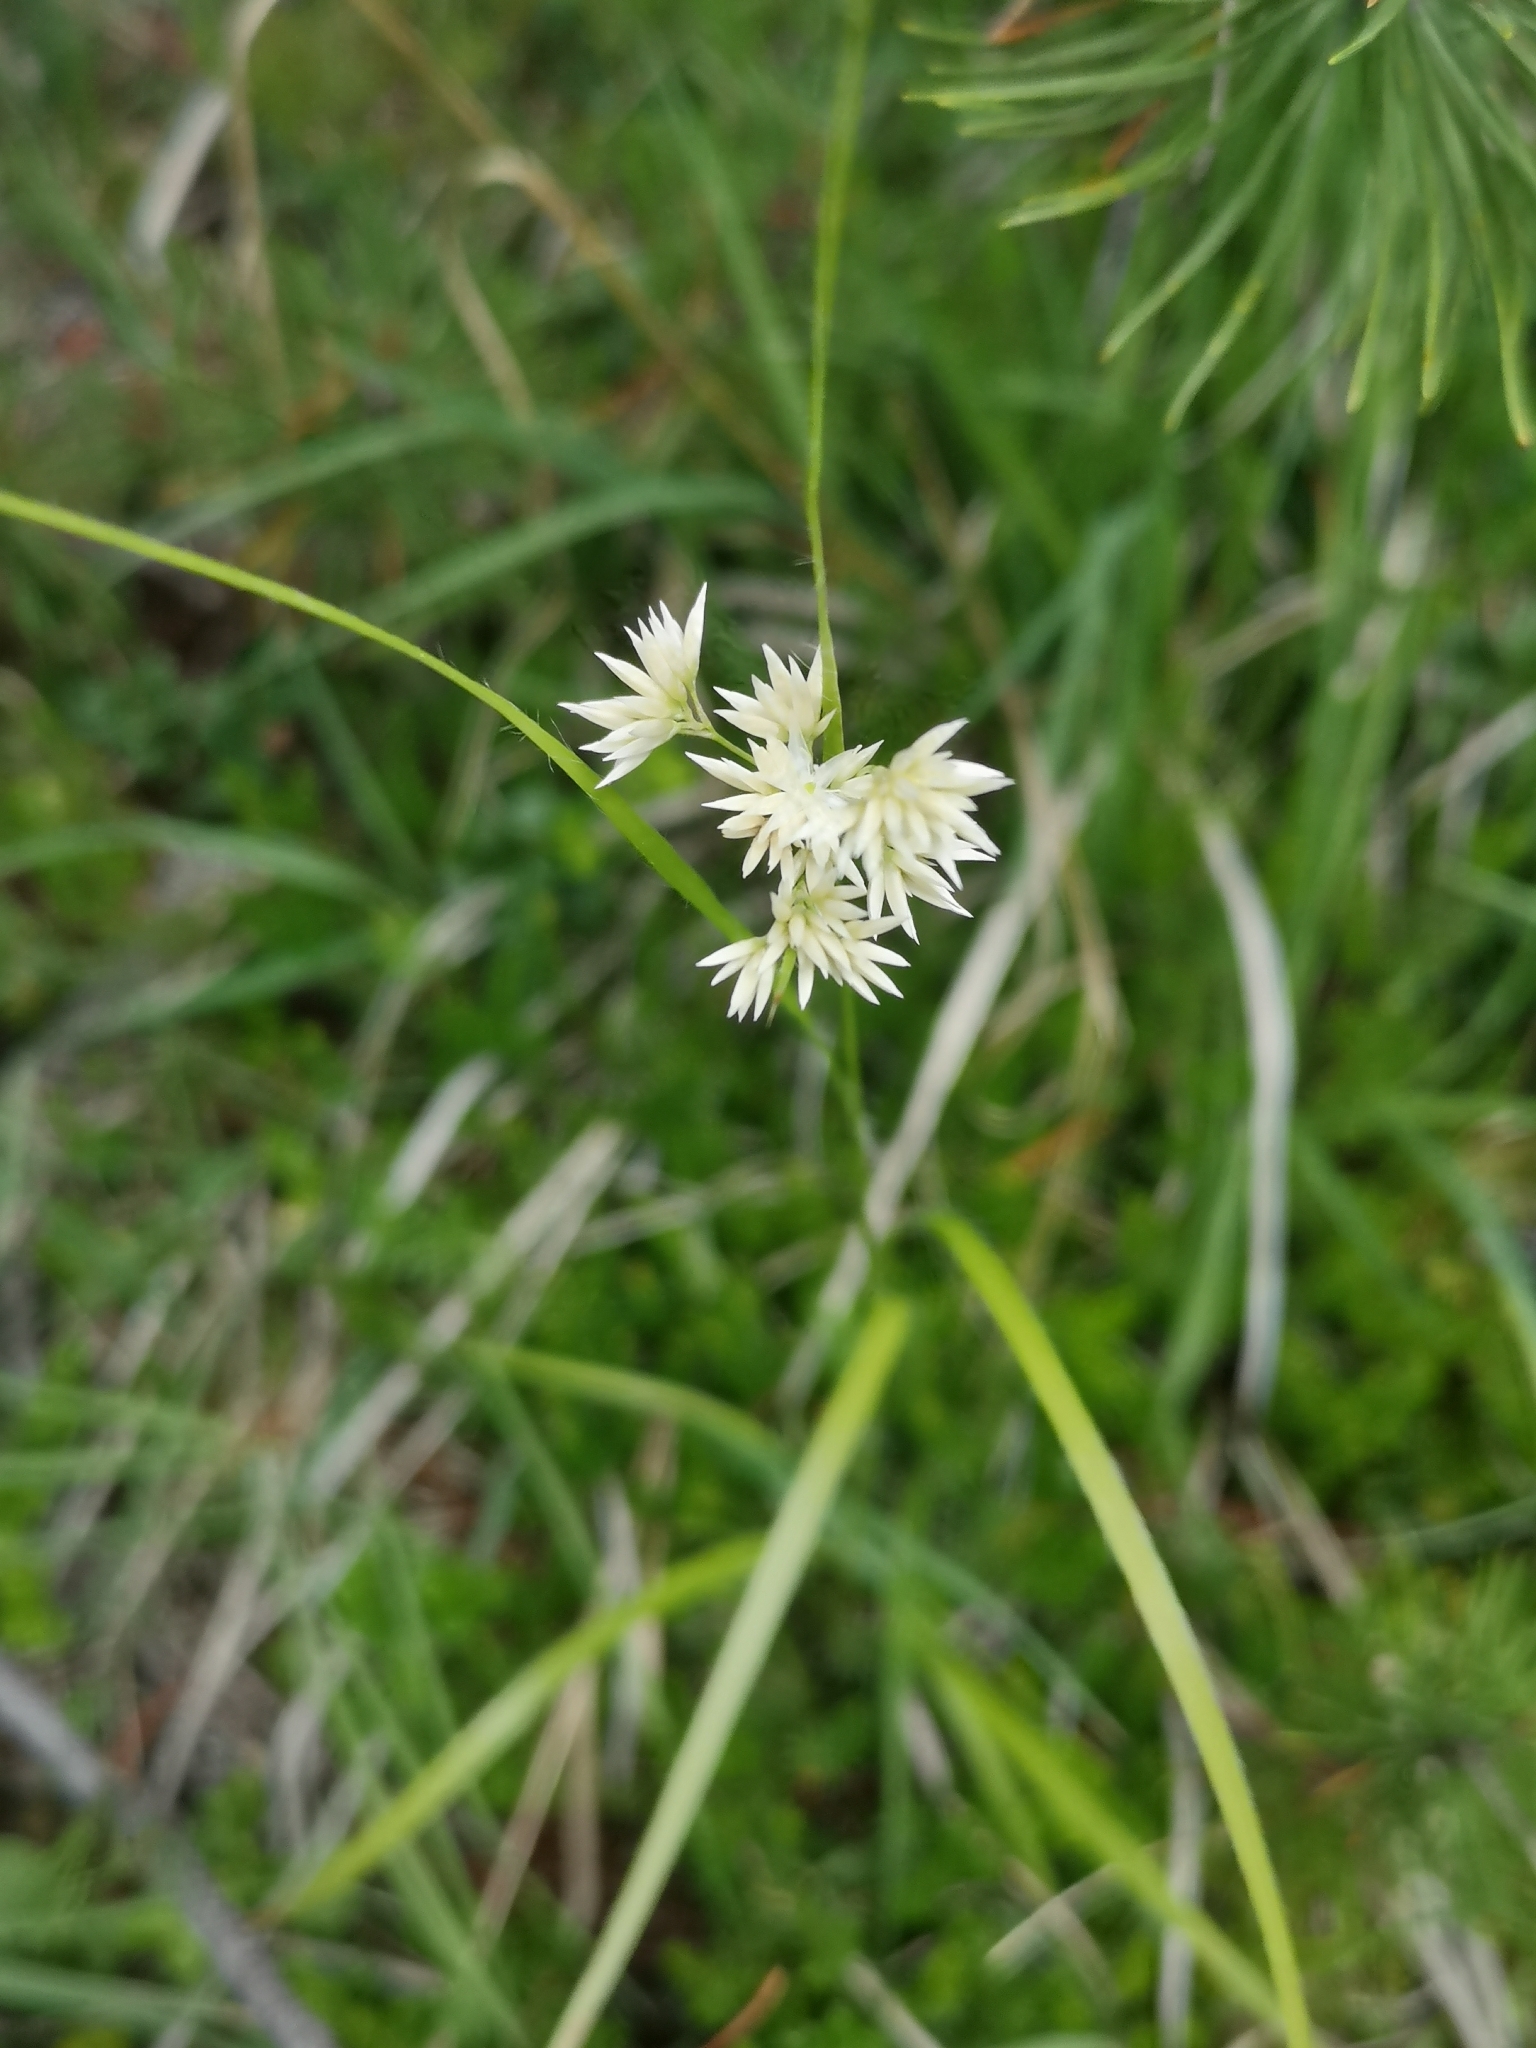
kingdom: Plantae
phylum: Tracheophyta
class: Liliopsida
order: Poales
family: Juncaceae
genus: Luzula
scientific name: Luzula nivea
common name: Snow-white wood-rush
